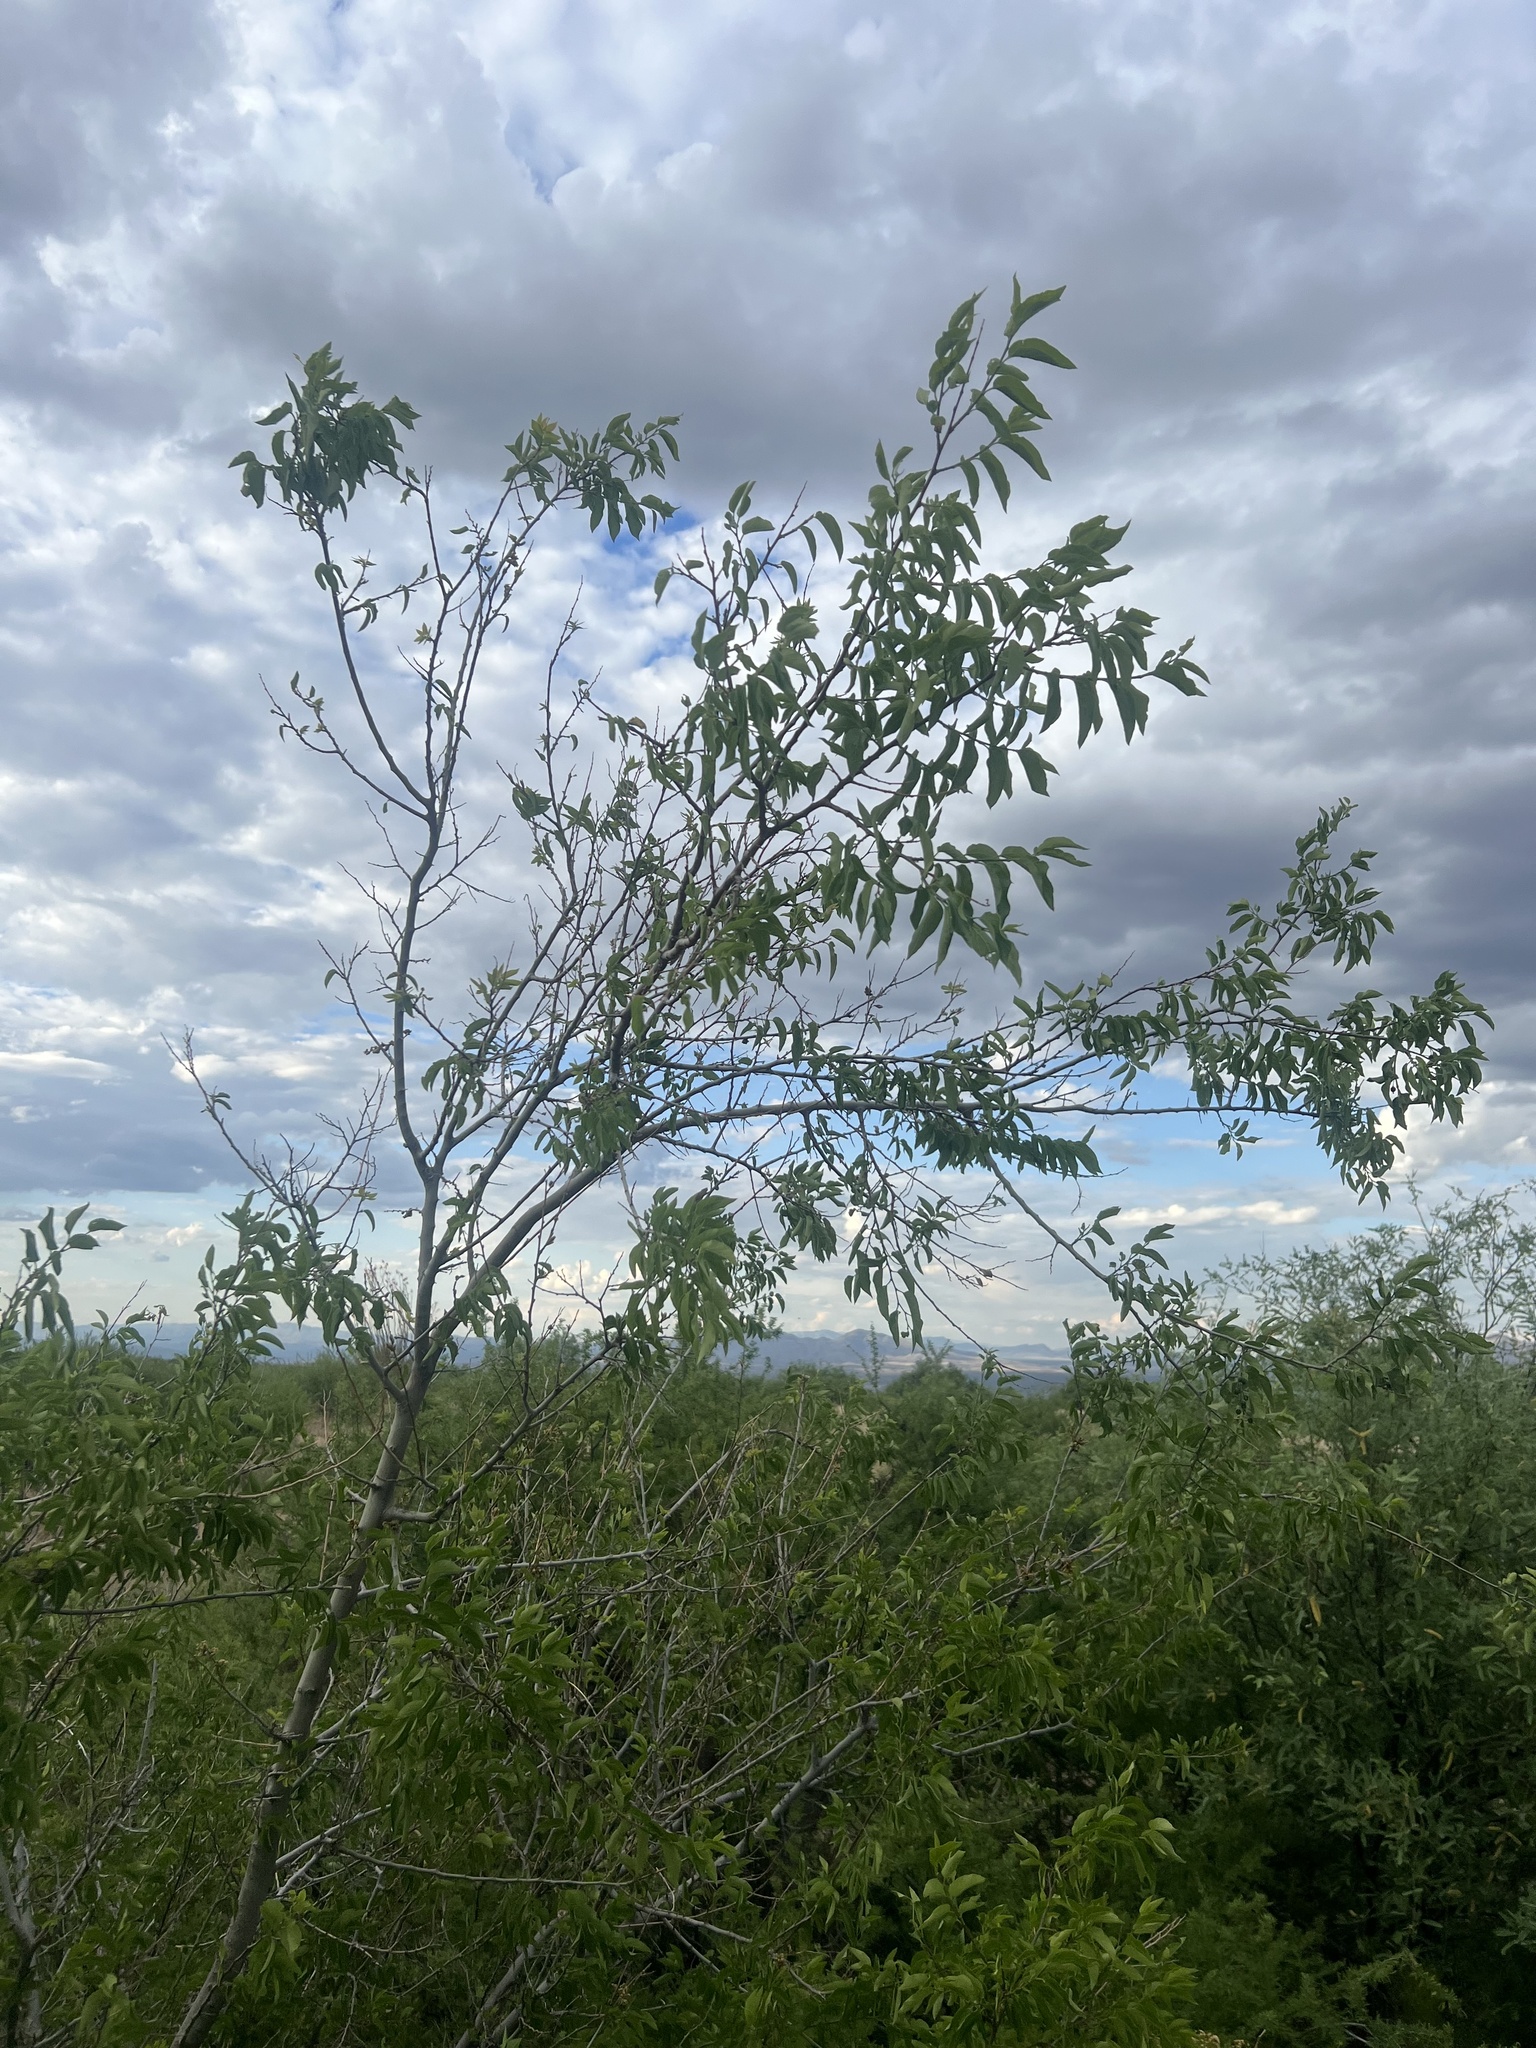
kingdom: Plantae
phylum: Tracheophyta
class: Magnoliopsida
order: Rosales
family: Cannabaceae
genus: Celtis
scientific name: Celtis reticulata
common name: Netleaf hackberry
